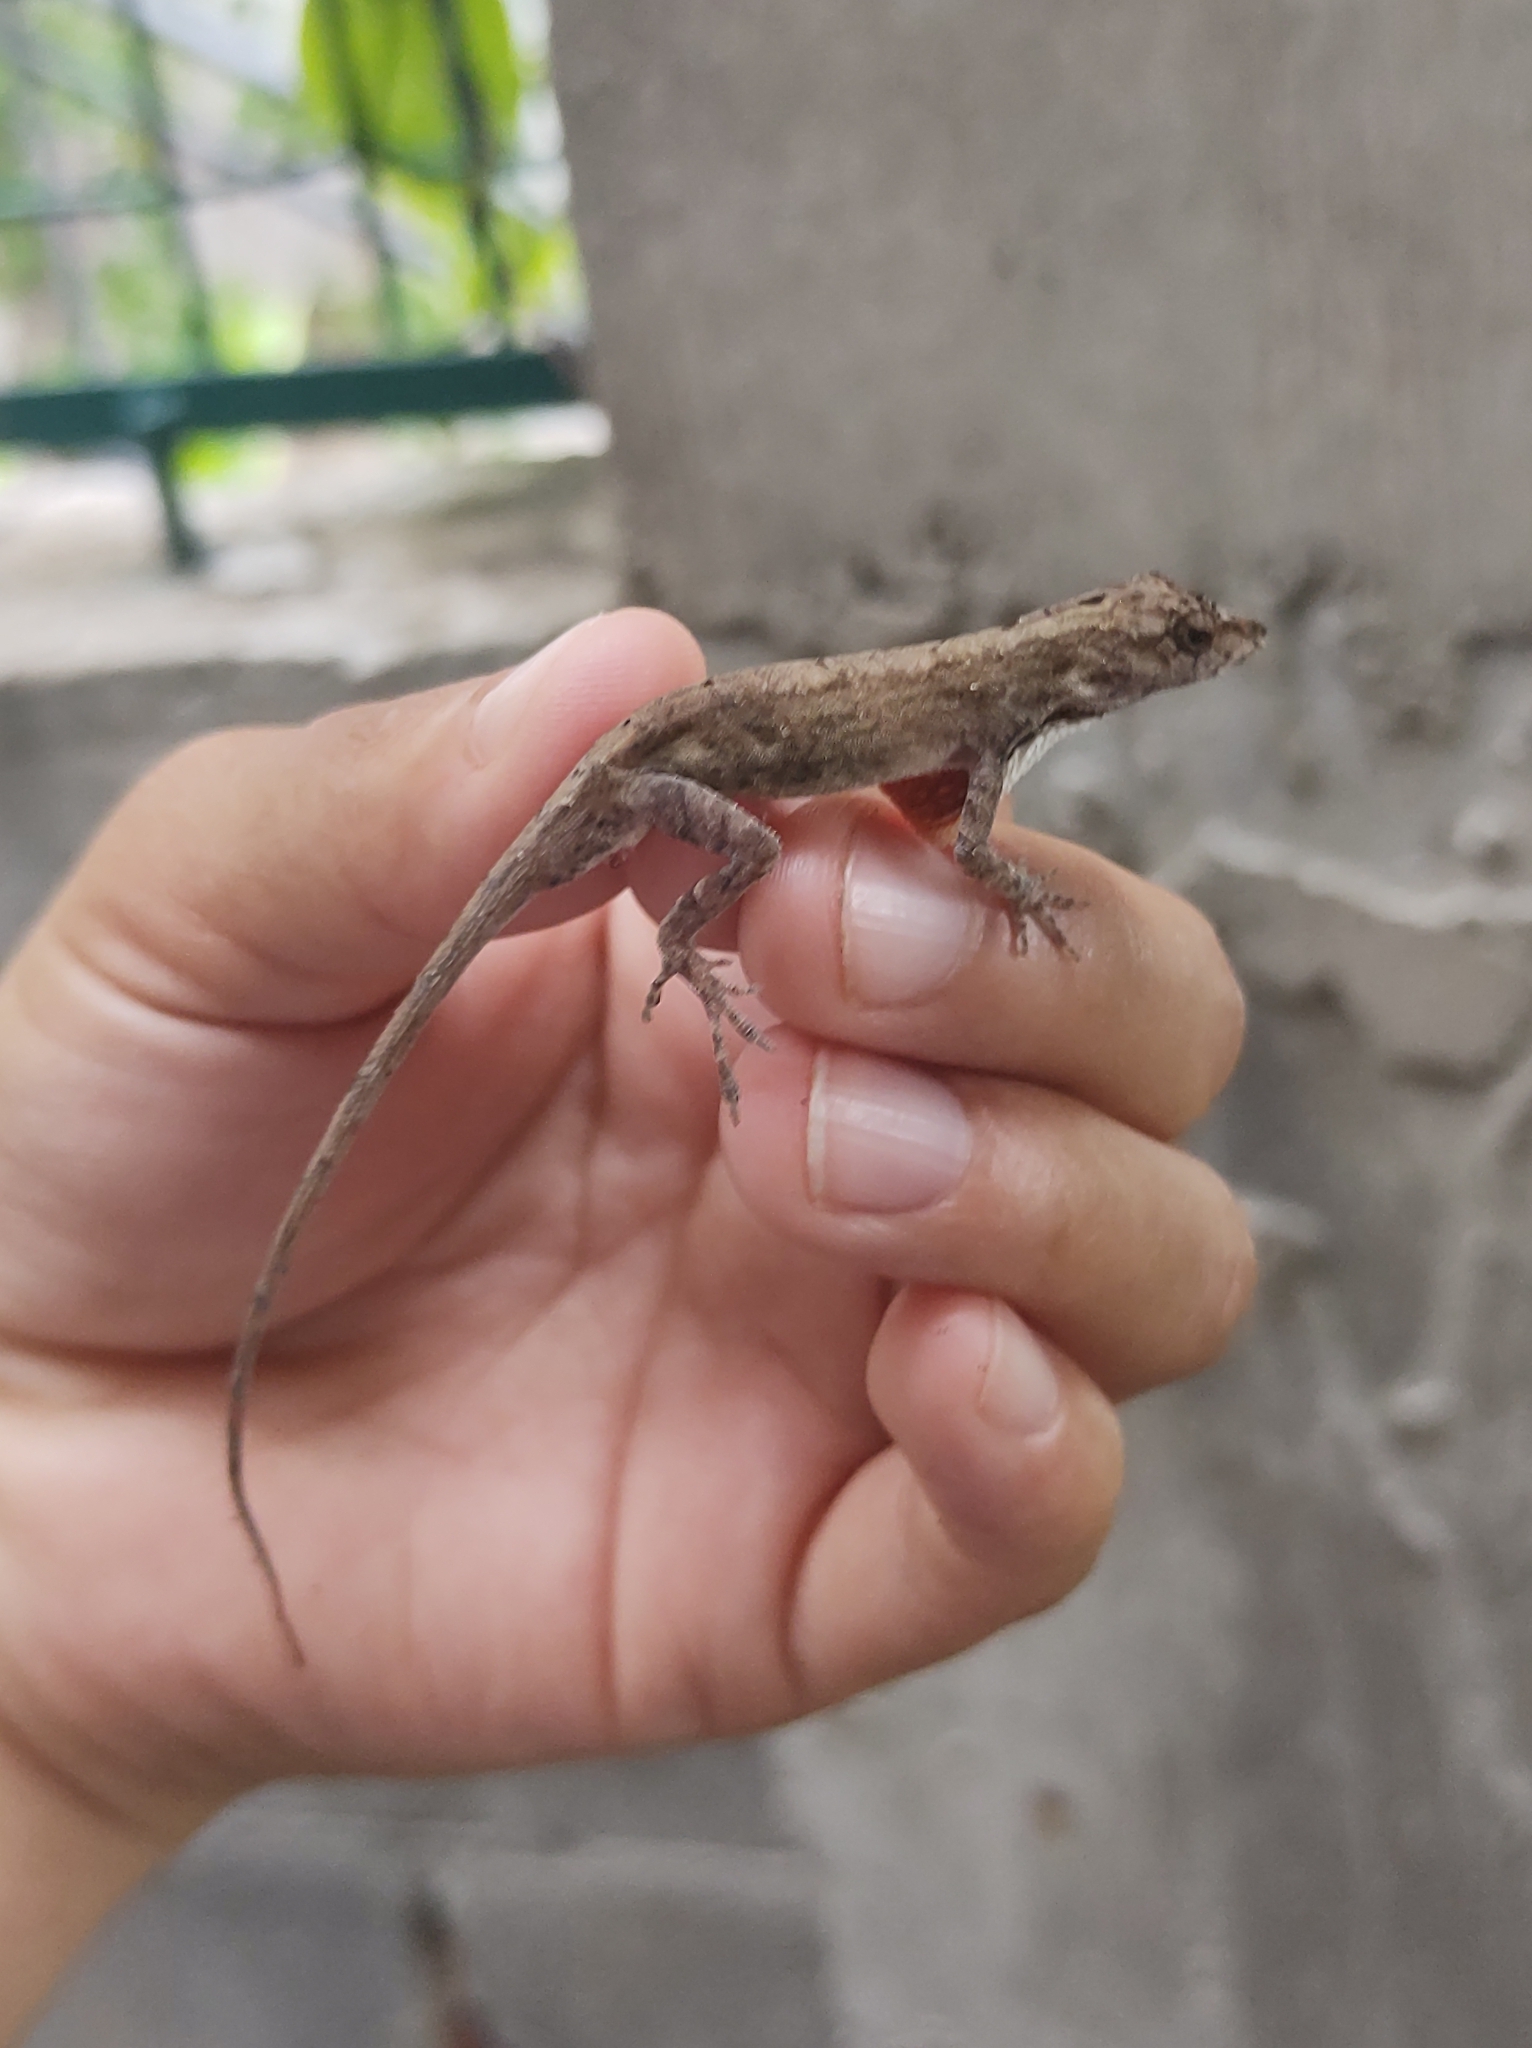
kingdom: Animalia
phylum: Chordata
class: Squamata
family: Dactyloidae
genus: Anolis
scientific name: Anolis nebulosus
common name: Clouded anole
